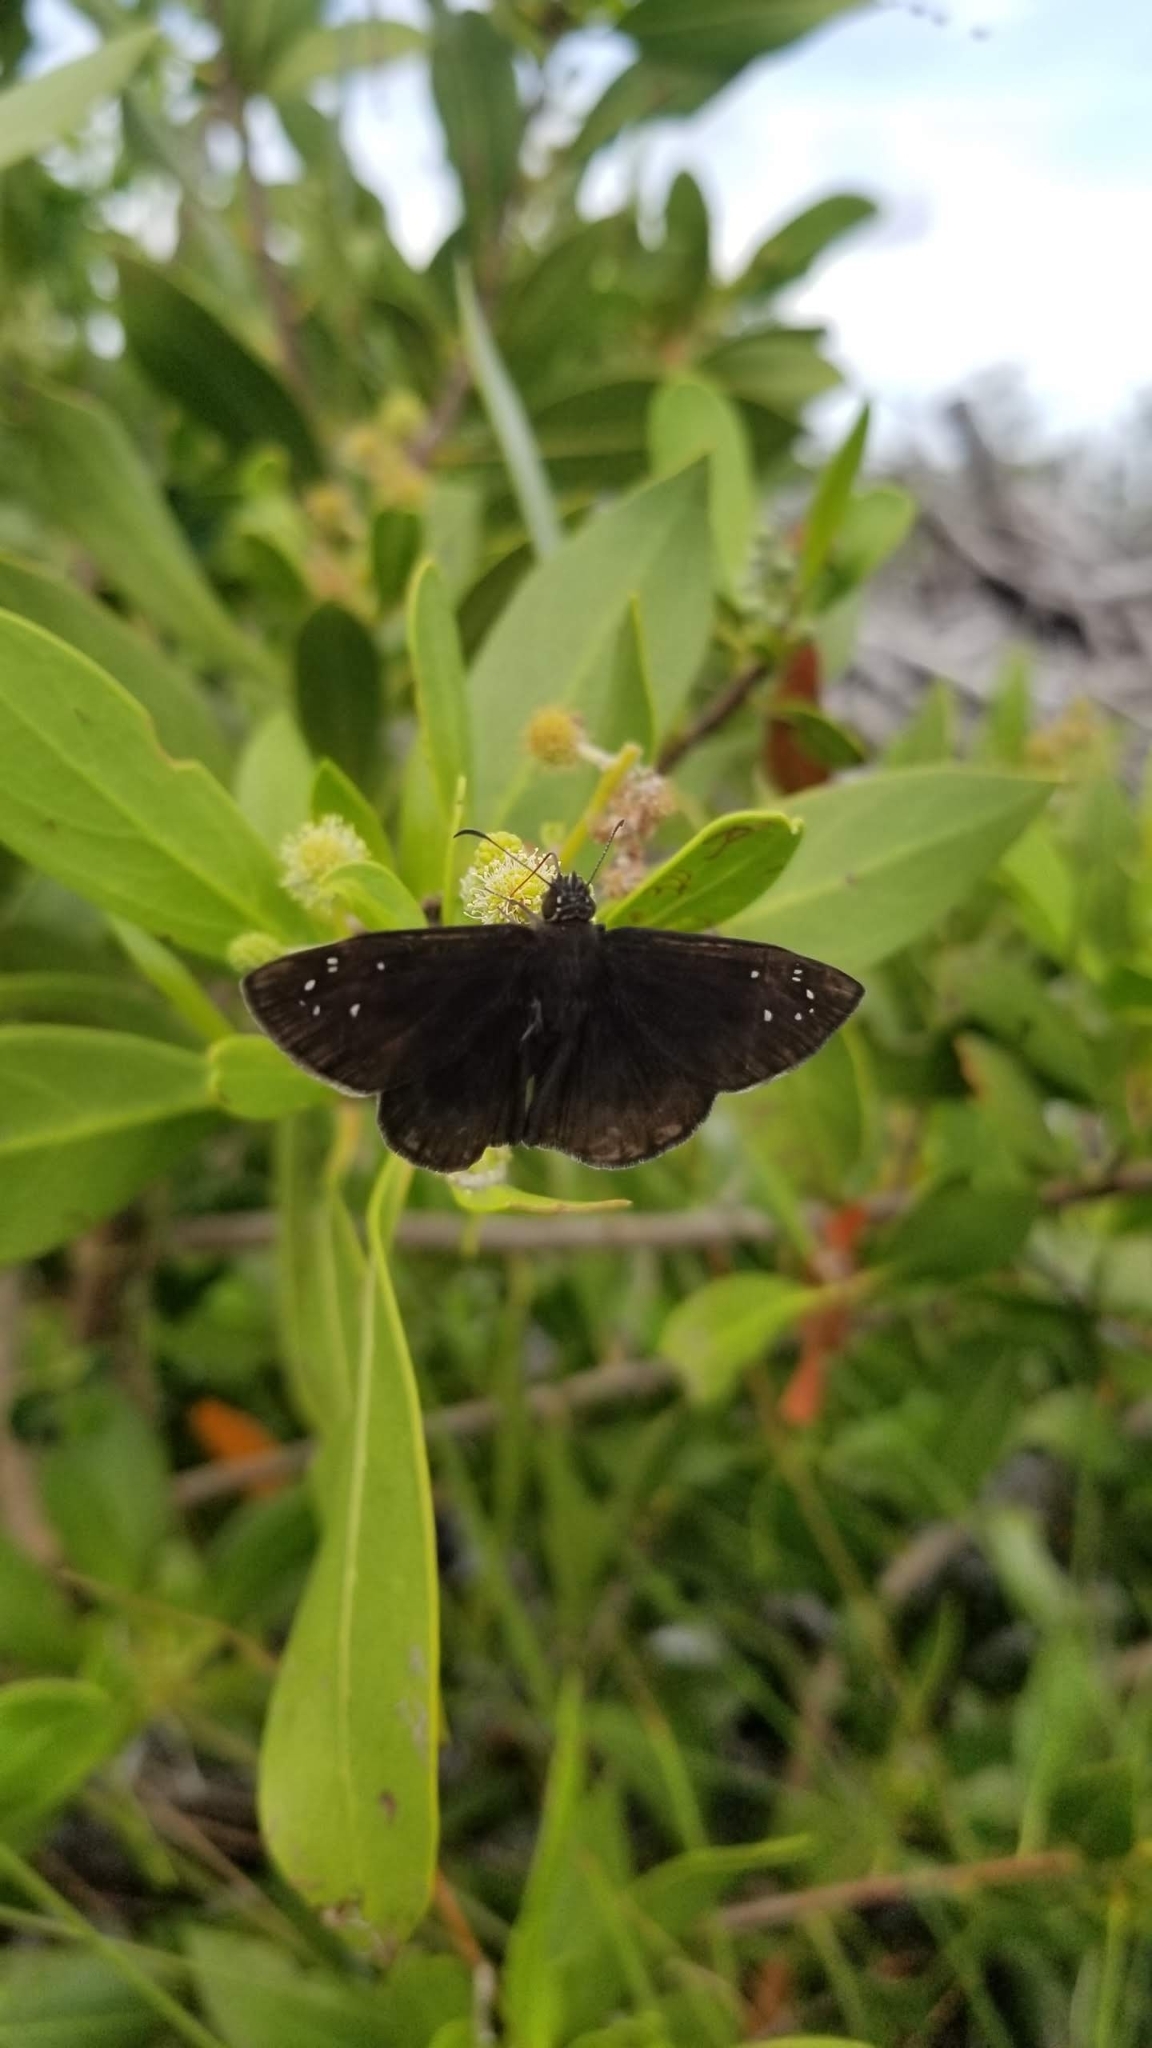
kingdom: Animalia
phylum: Arthropoda
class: Insecta
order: Lepidoptera
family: Hesperiidae
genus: Ephyriades
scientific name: Ephyriades brunnea
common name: Florida duskywing
